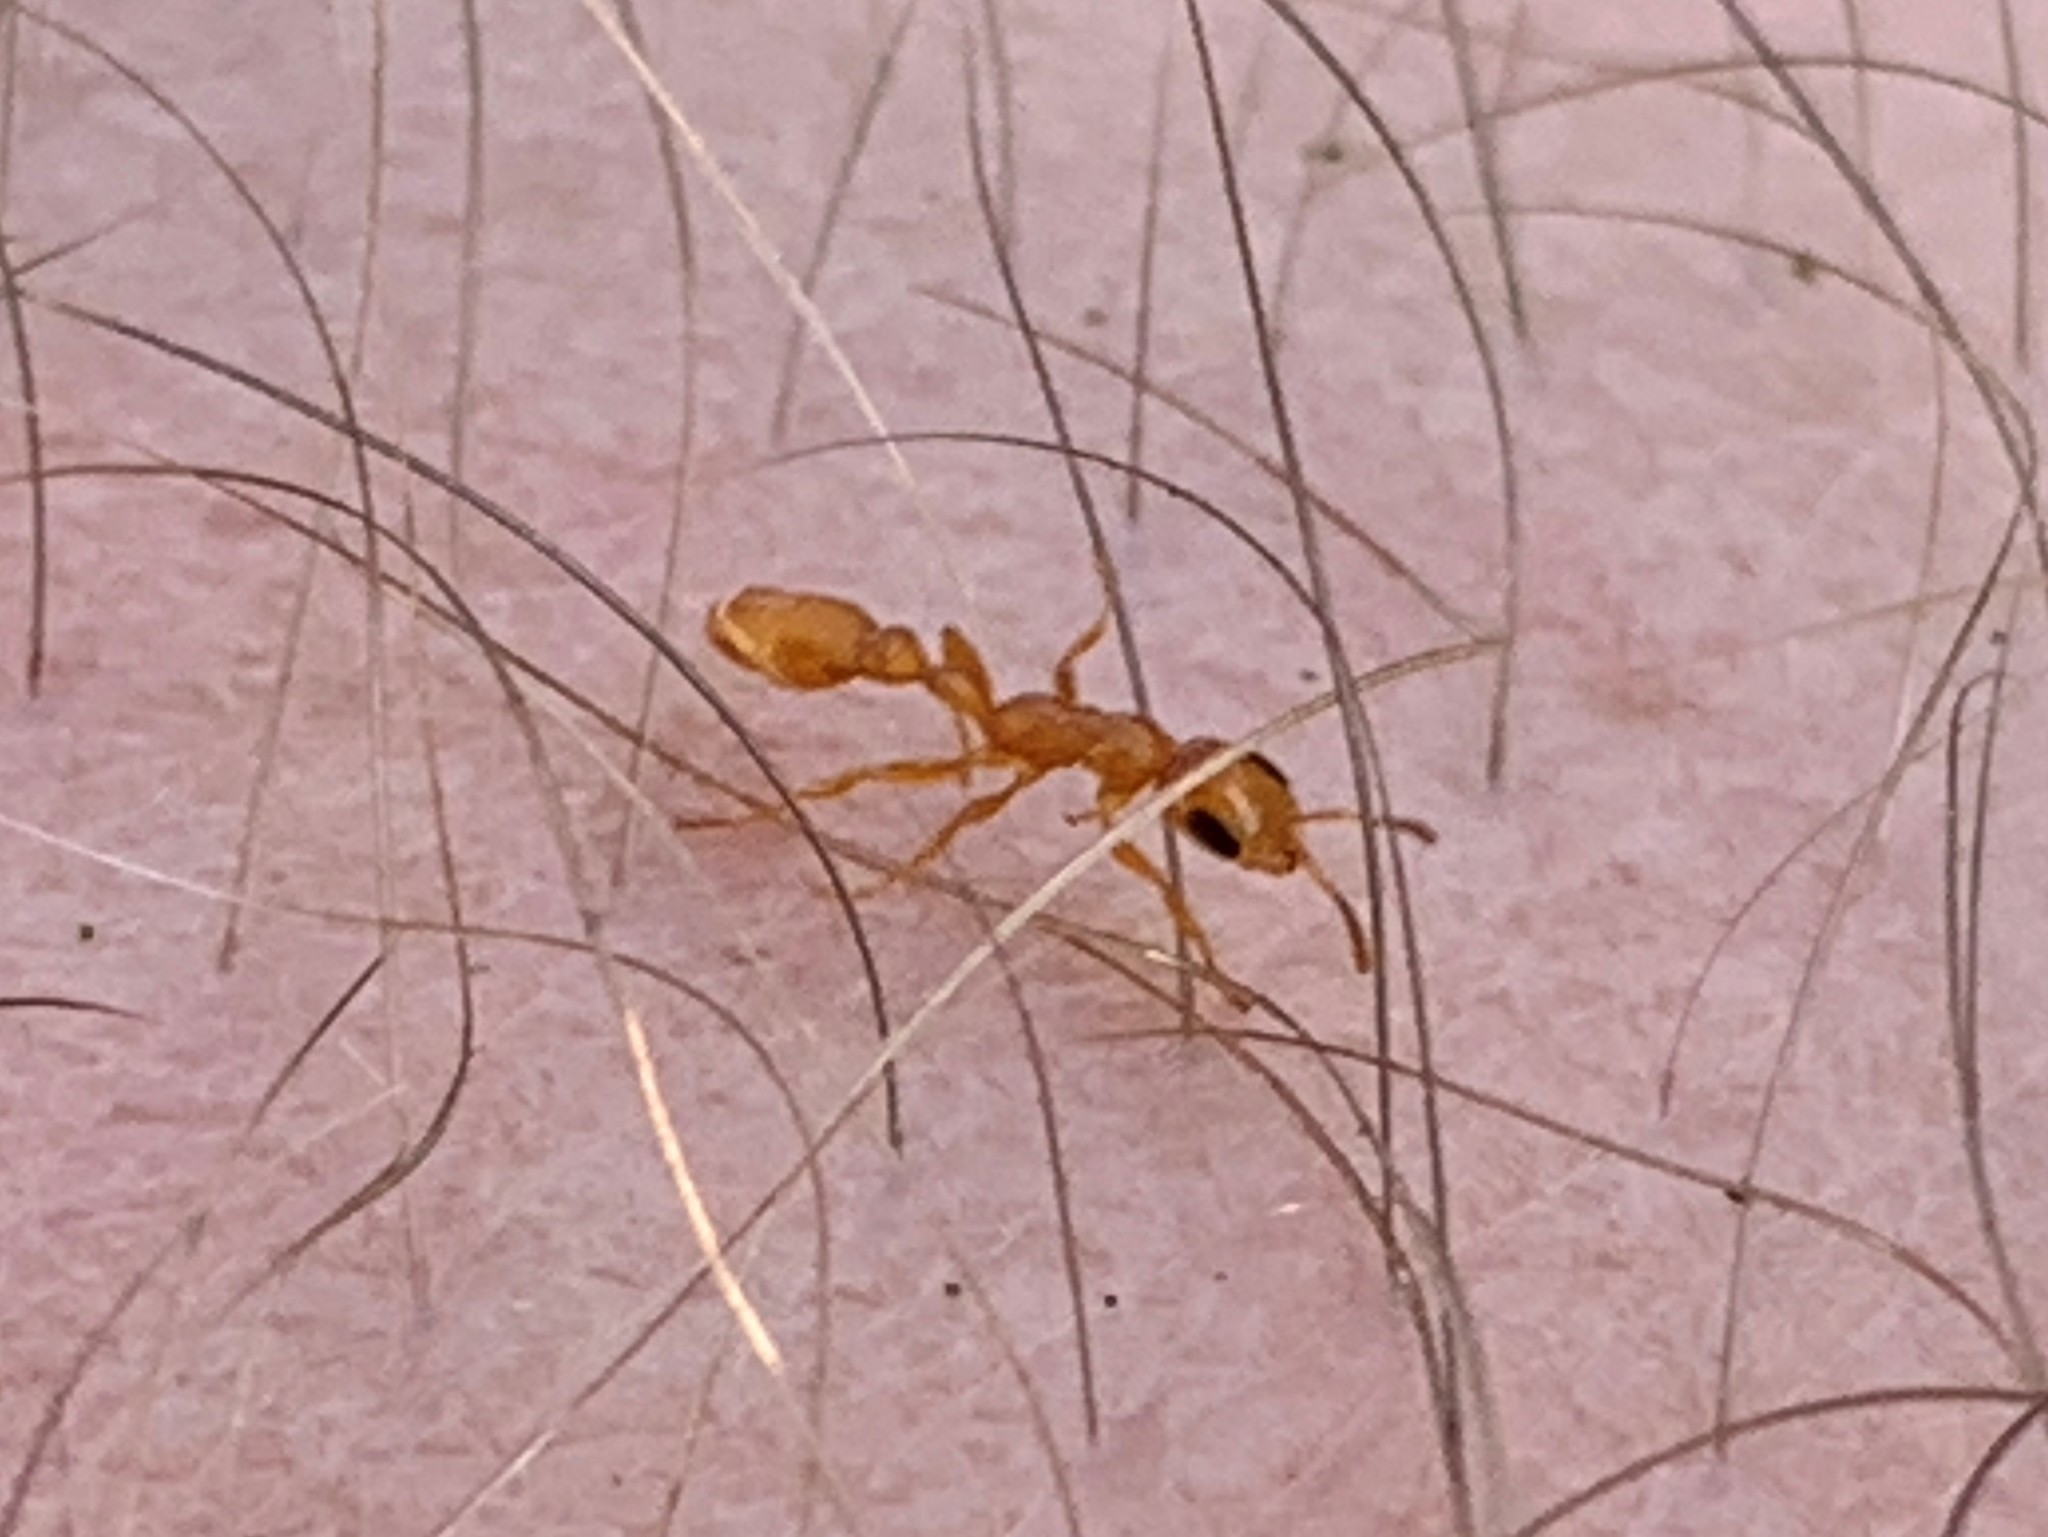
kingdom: Animalia
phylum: Arthropoda
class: Insecta
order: Hymenoptera
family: Formicidae
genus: Pseudomyrmex
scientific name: Pseudomyrmex pallidus
